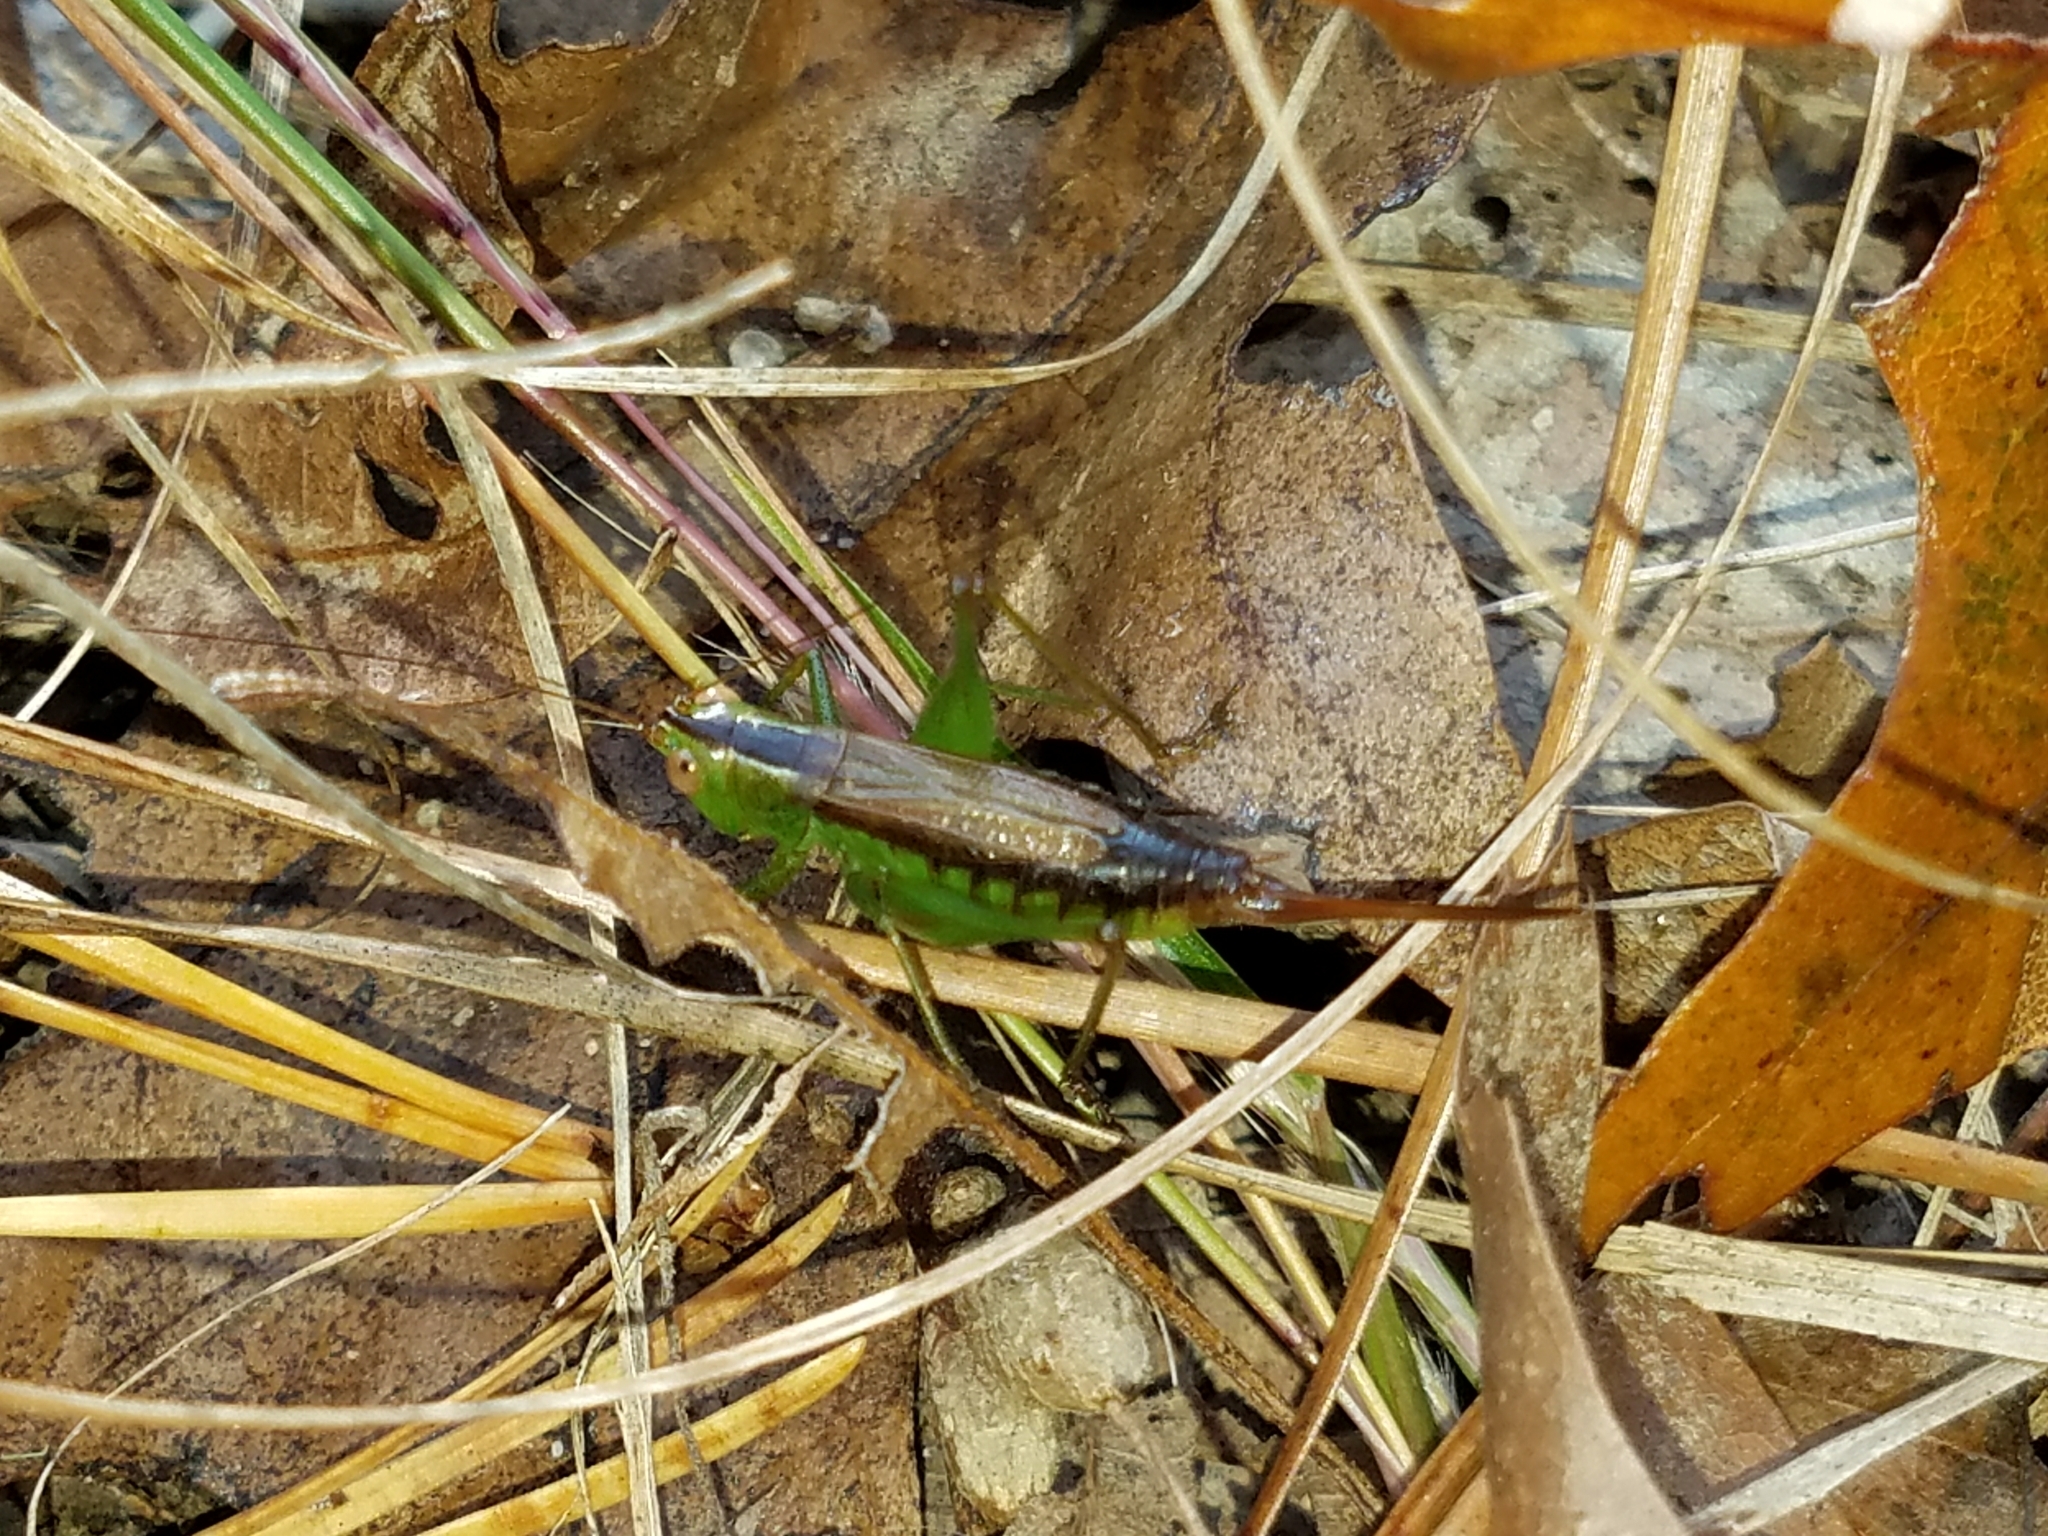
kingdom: Animalia
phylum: Arthropoda
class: Insecta
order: Orthoptera
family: Tettigoniidae
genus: Conocephalus
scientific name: Conocephalus brevipennis
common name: Short-winged meadow katydid
